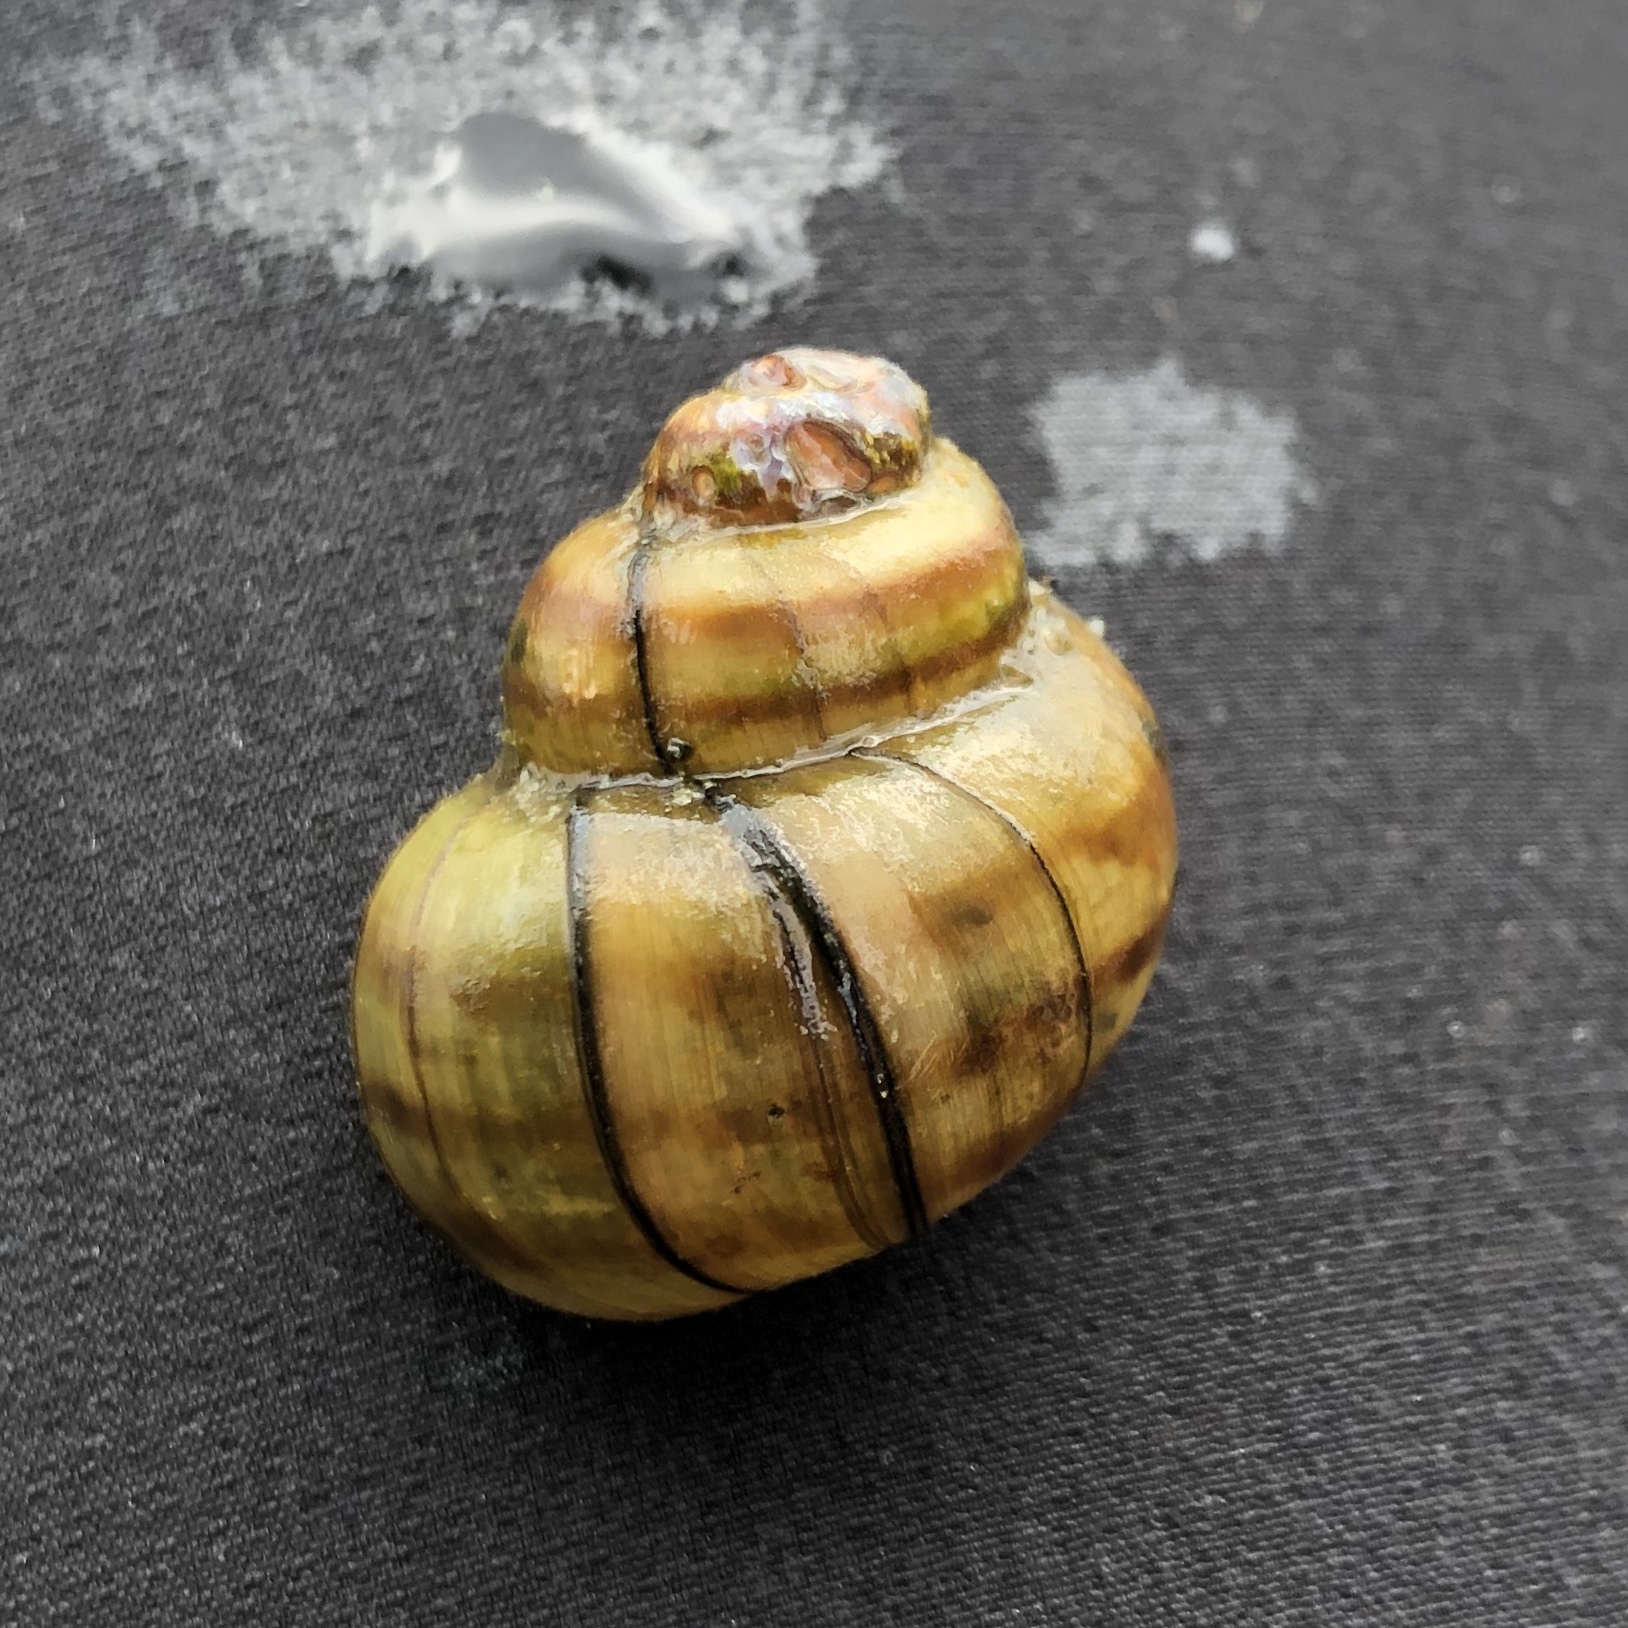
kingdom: Animalia
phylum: Mollusca
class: Gastropoda
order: Architaenioglossa
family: Viviparidae
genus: Callinina
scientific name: Callinina georgiana
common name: Banded mystery snail
